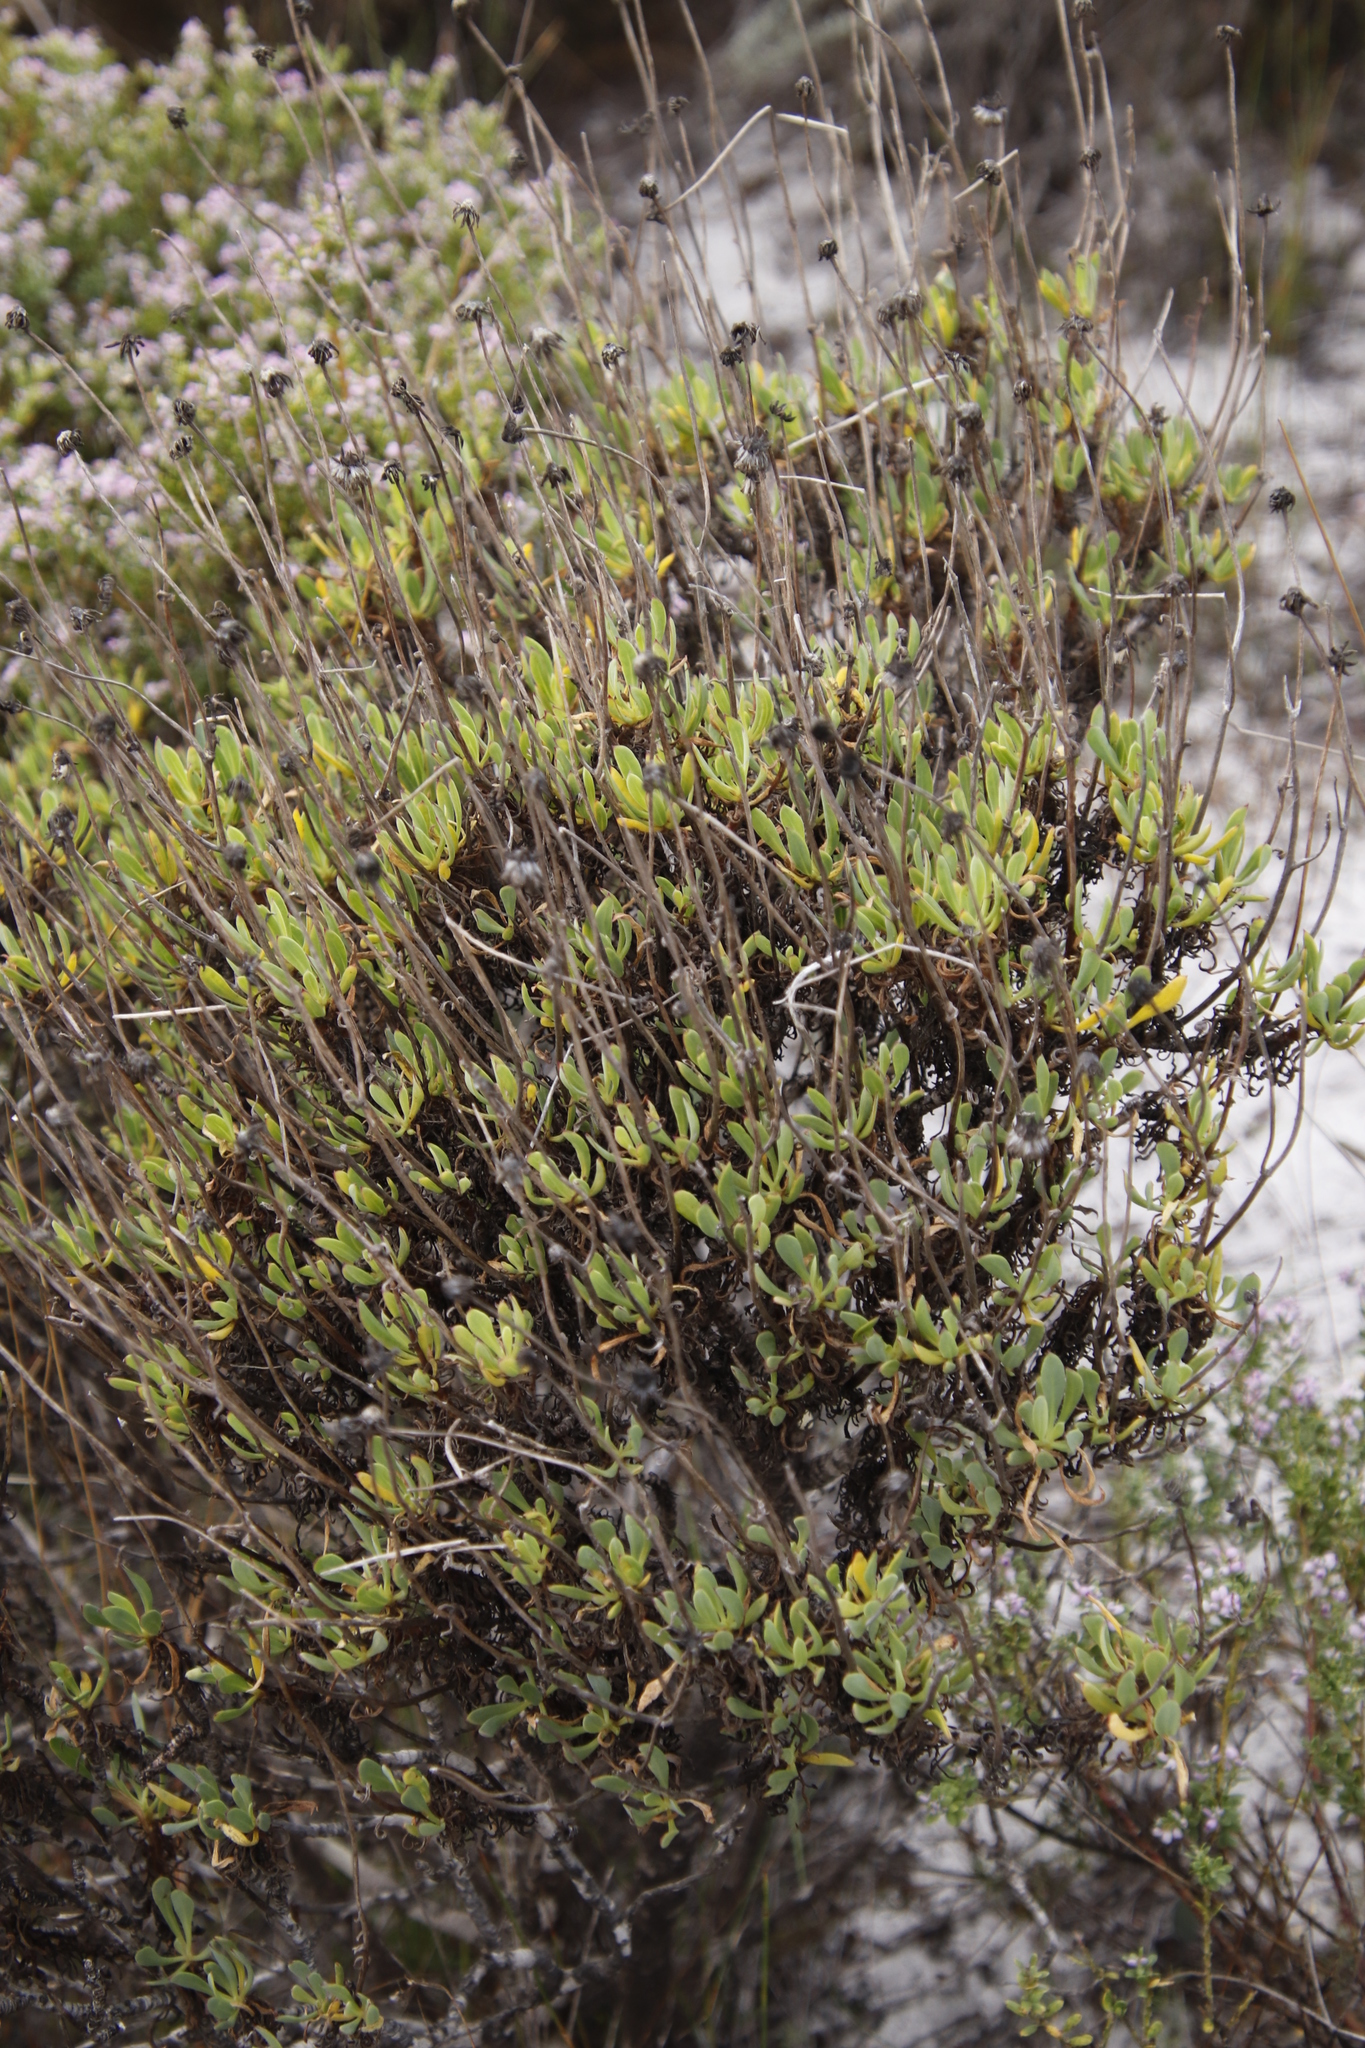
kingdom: Plantae
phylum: Tracheophyta
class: Magnoliopsida
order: Asterales
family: Asteraceae
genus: Othonna
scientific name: Othonna coronopifolia
